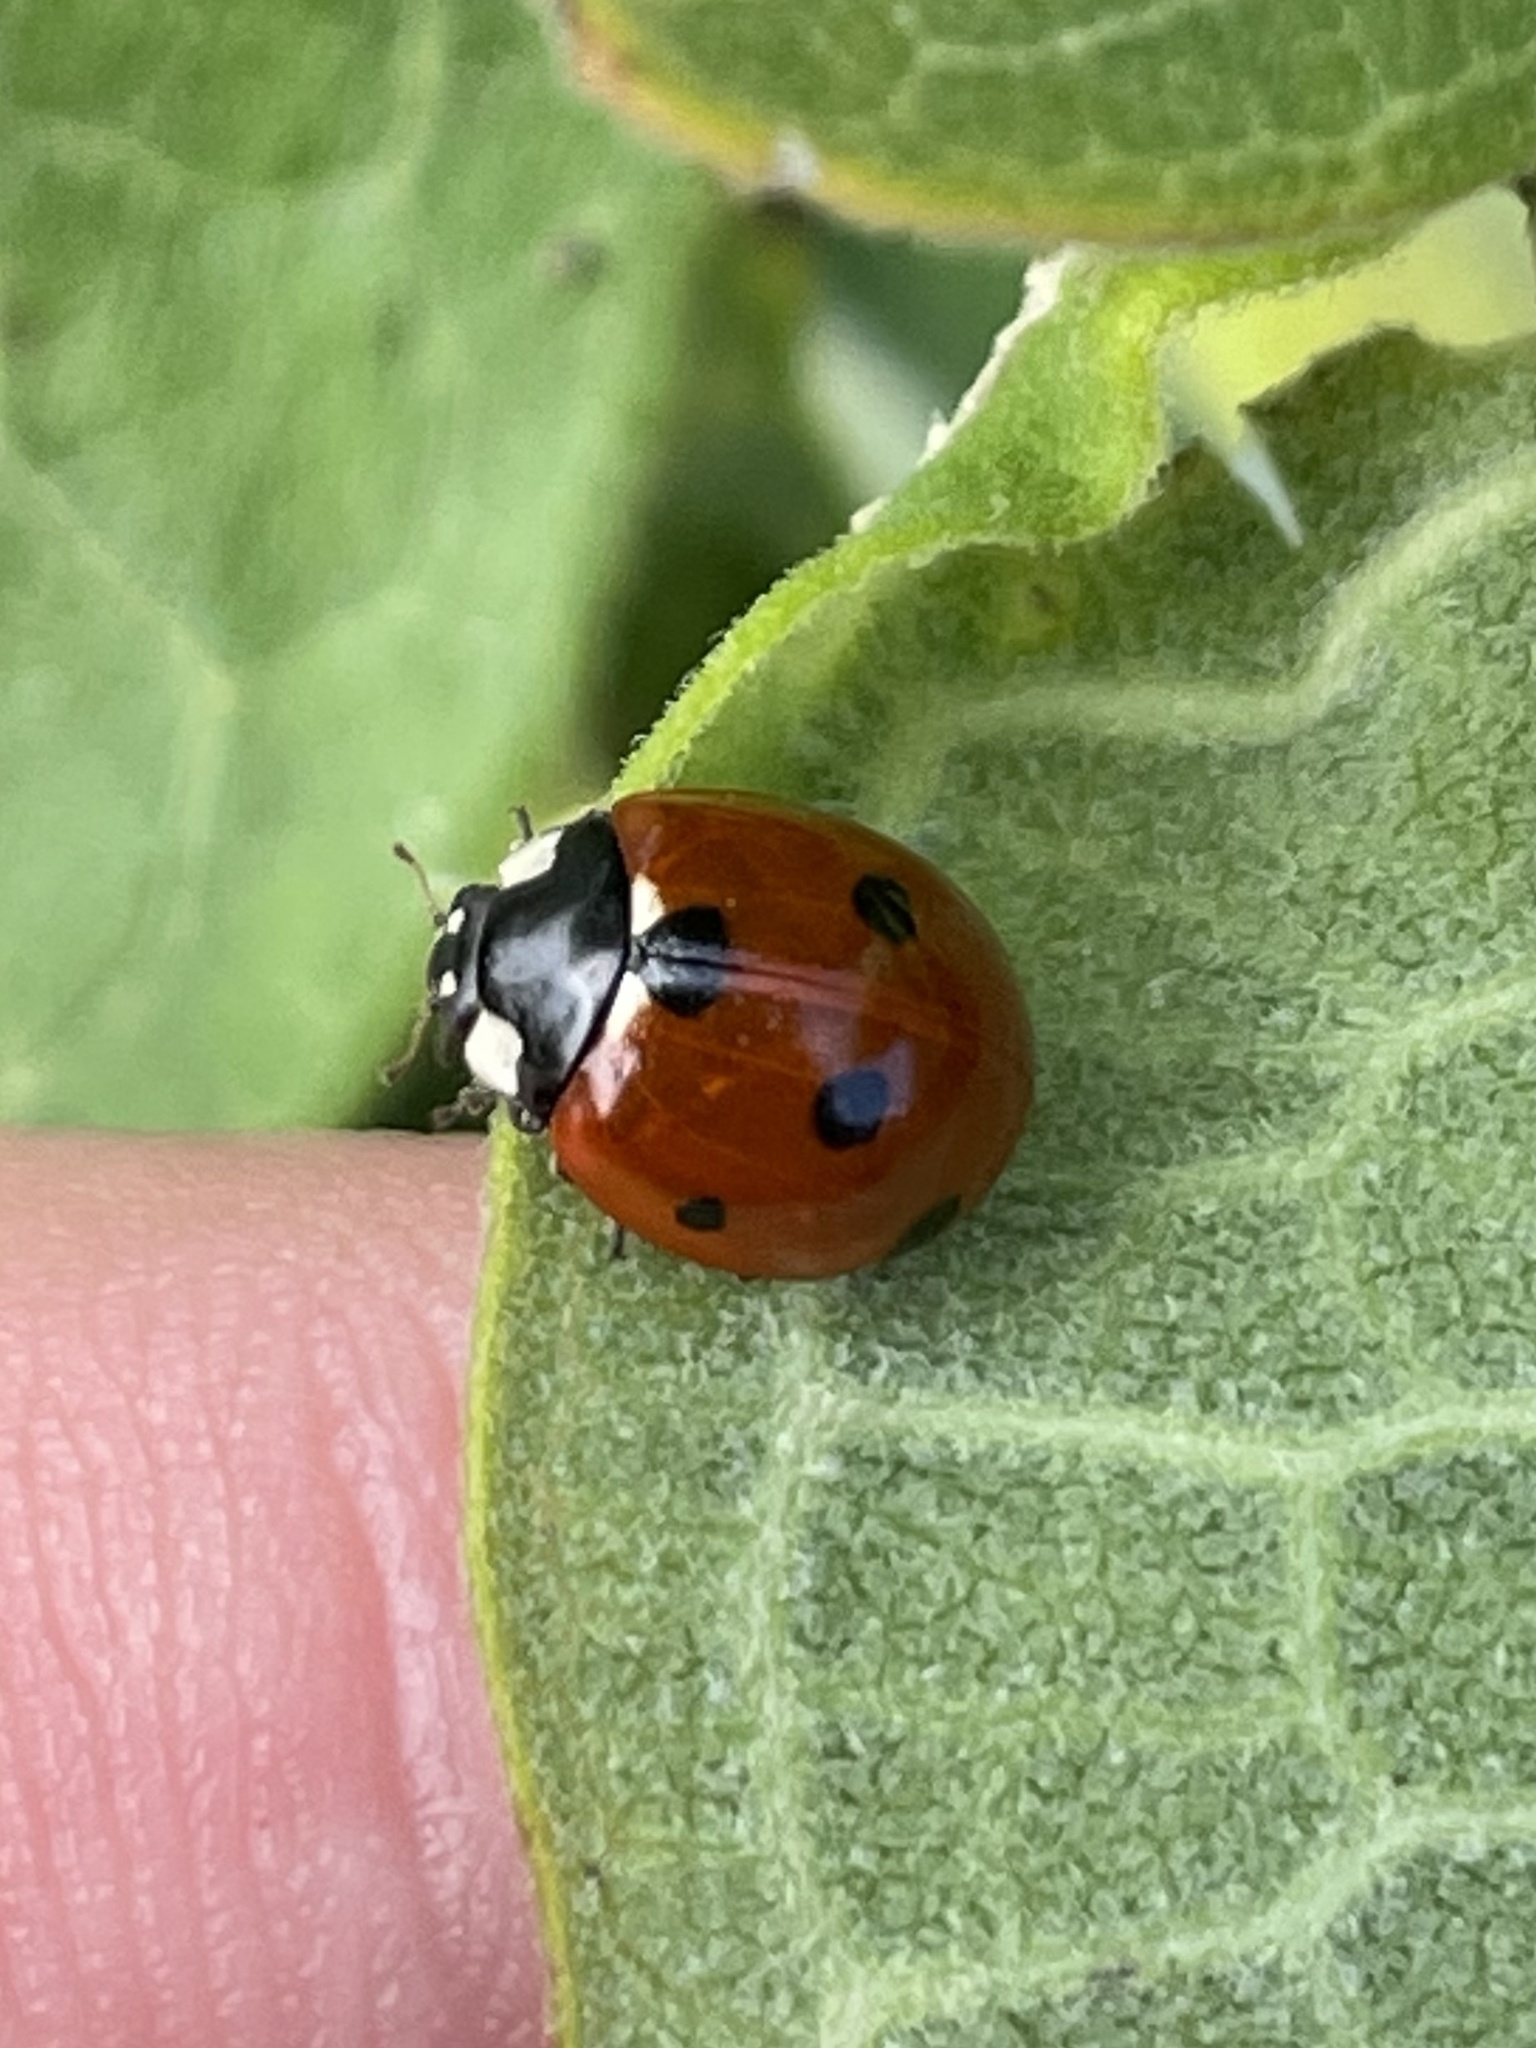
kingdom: Animalia
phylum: Arthropoda
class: Insecta
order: Coleoptera
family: Coccinellidae
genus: Coccinella
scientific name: Coccinella septempunctata
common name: Sevenspotted lady beetle
